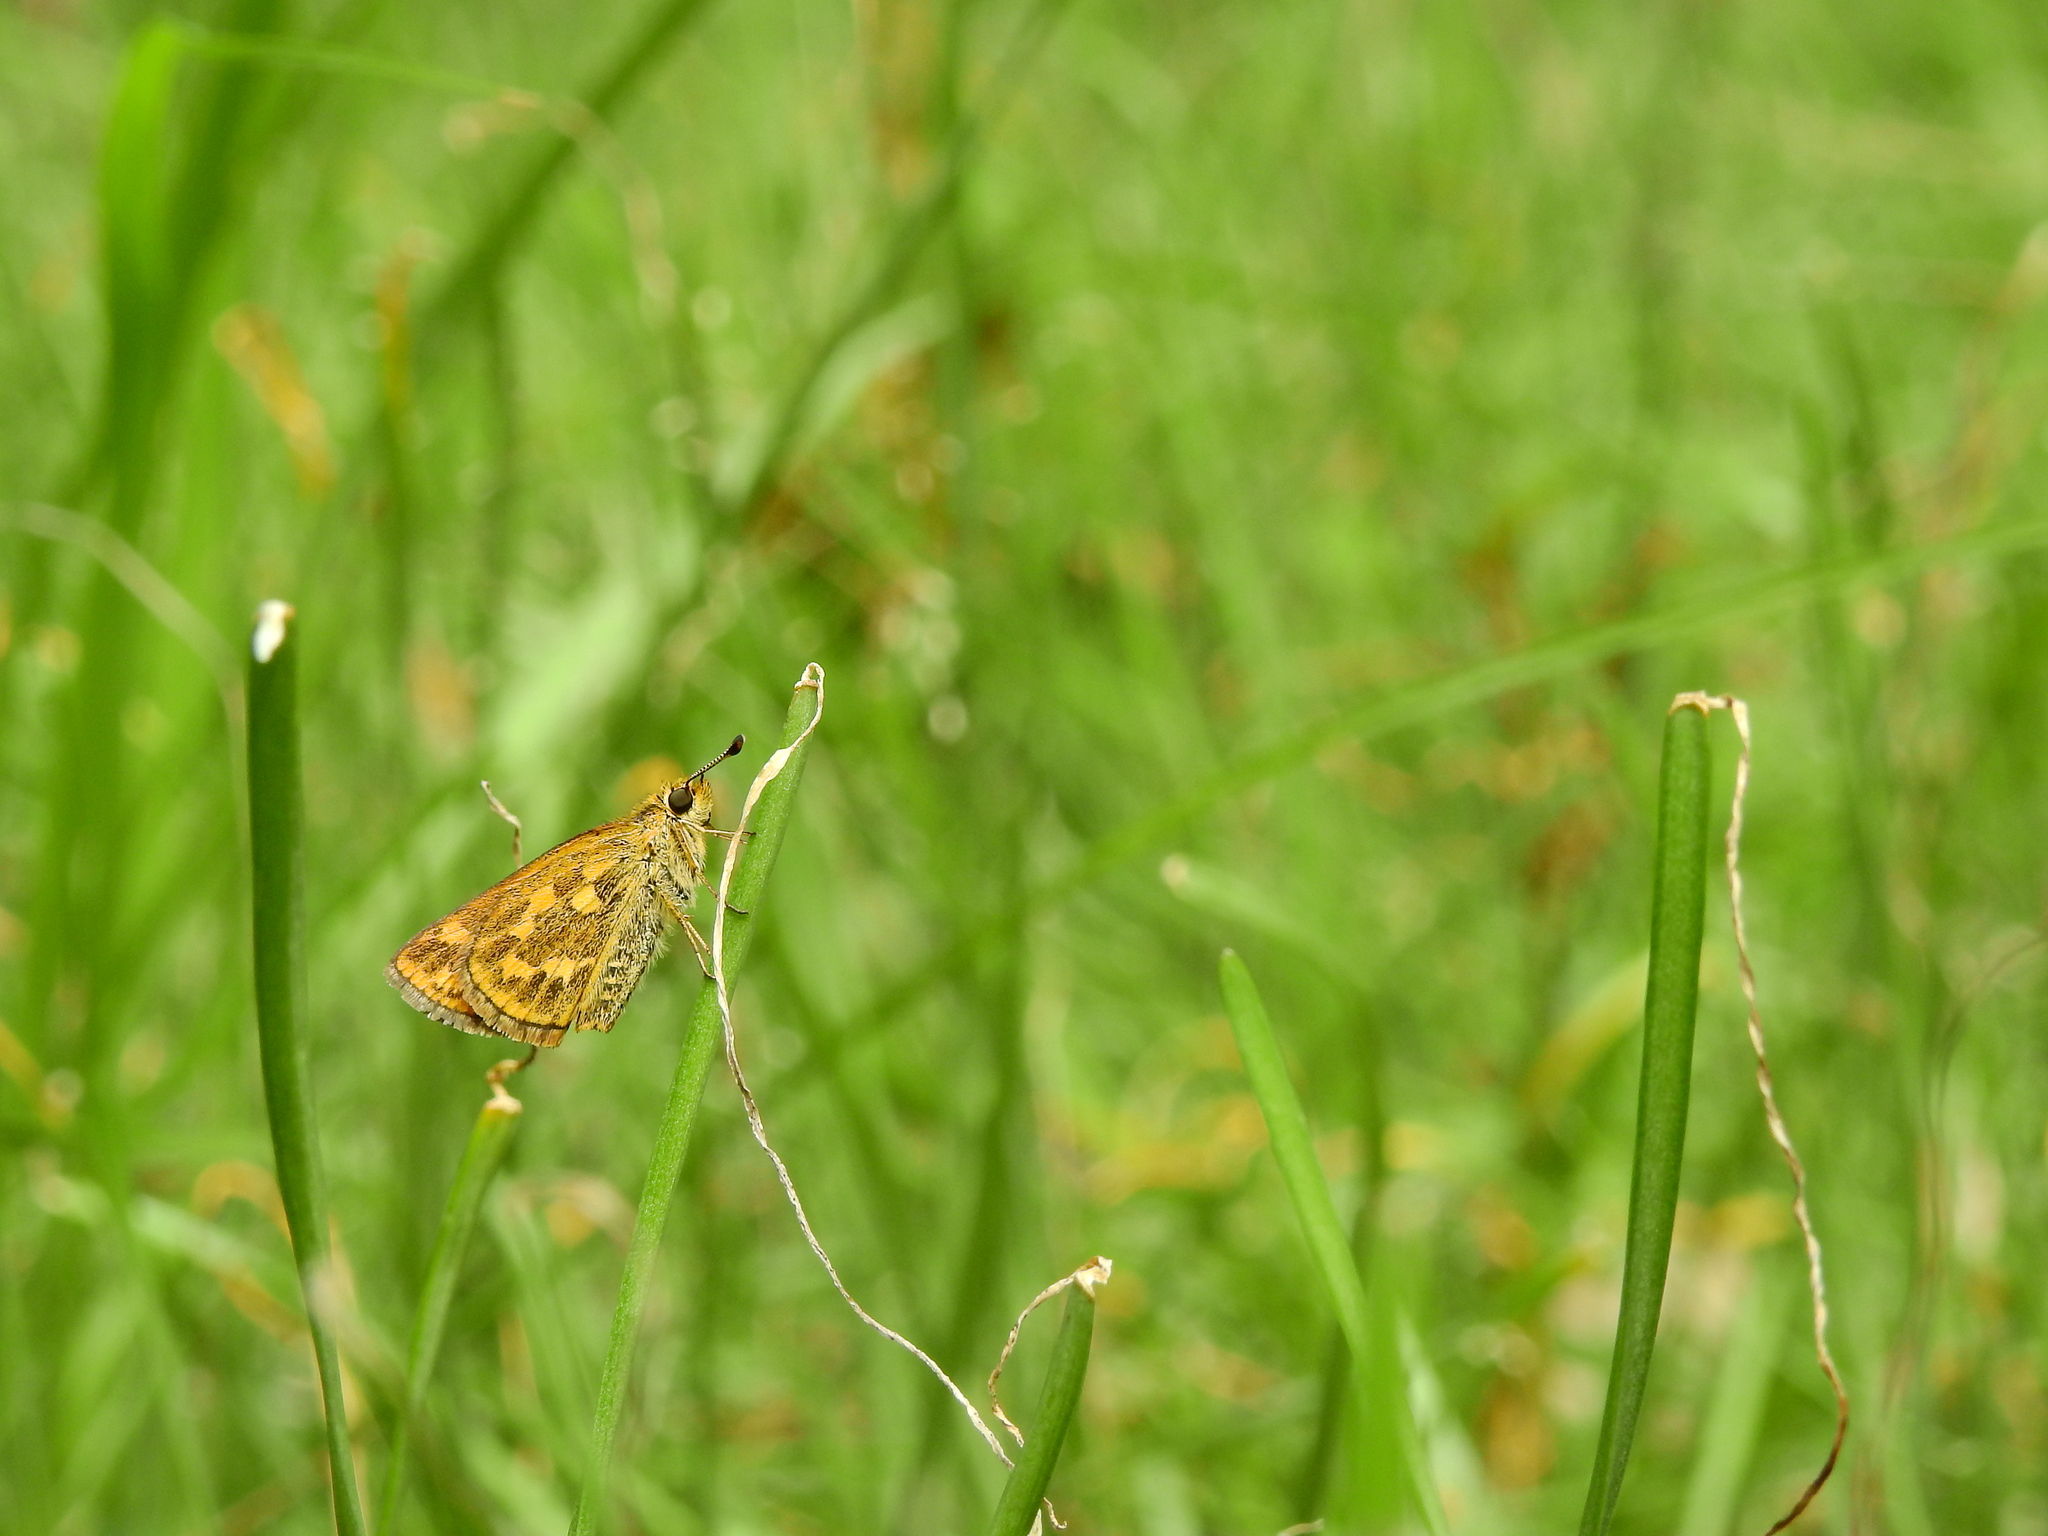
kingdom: Animalia
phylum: Arthropoda
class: Insecta
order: Lepidoptera
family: Hesperiidae
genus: Taractrocera
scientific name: Taractrocera ceramas
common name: Tamil grass dart
